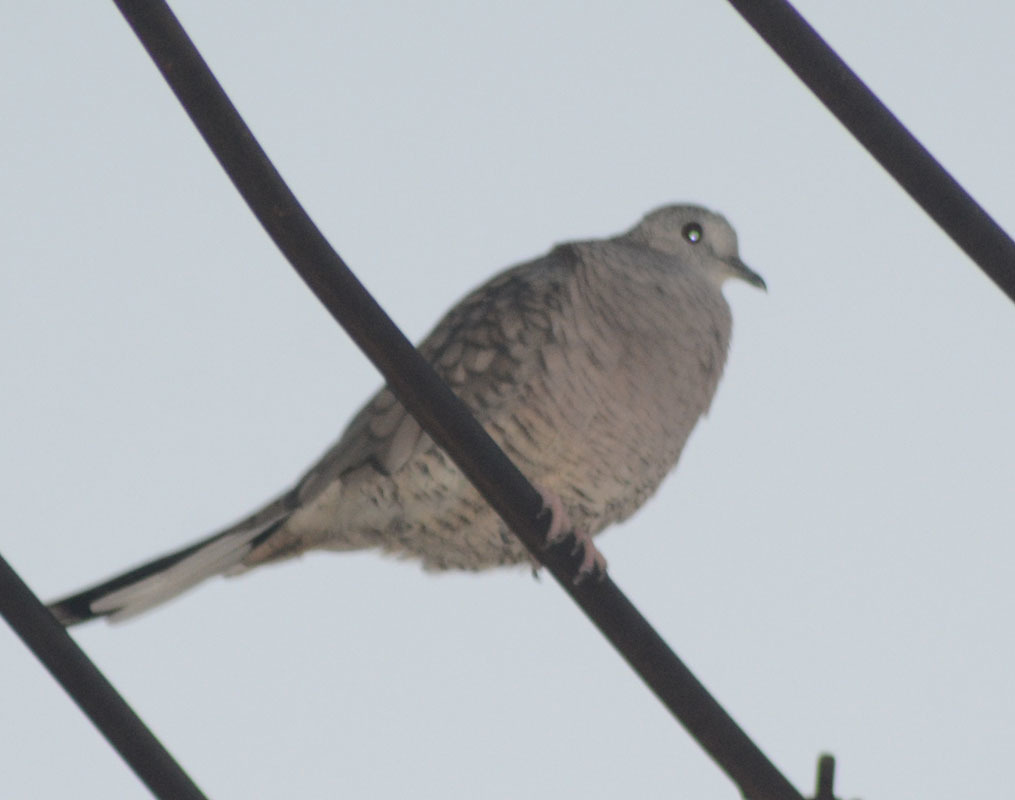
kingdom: Animalia
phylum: Chordata
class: Aves
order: Columbiformes
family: Columbidae
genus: Columbina
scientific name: Columbina inca
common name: Inca dove
